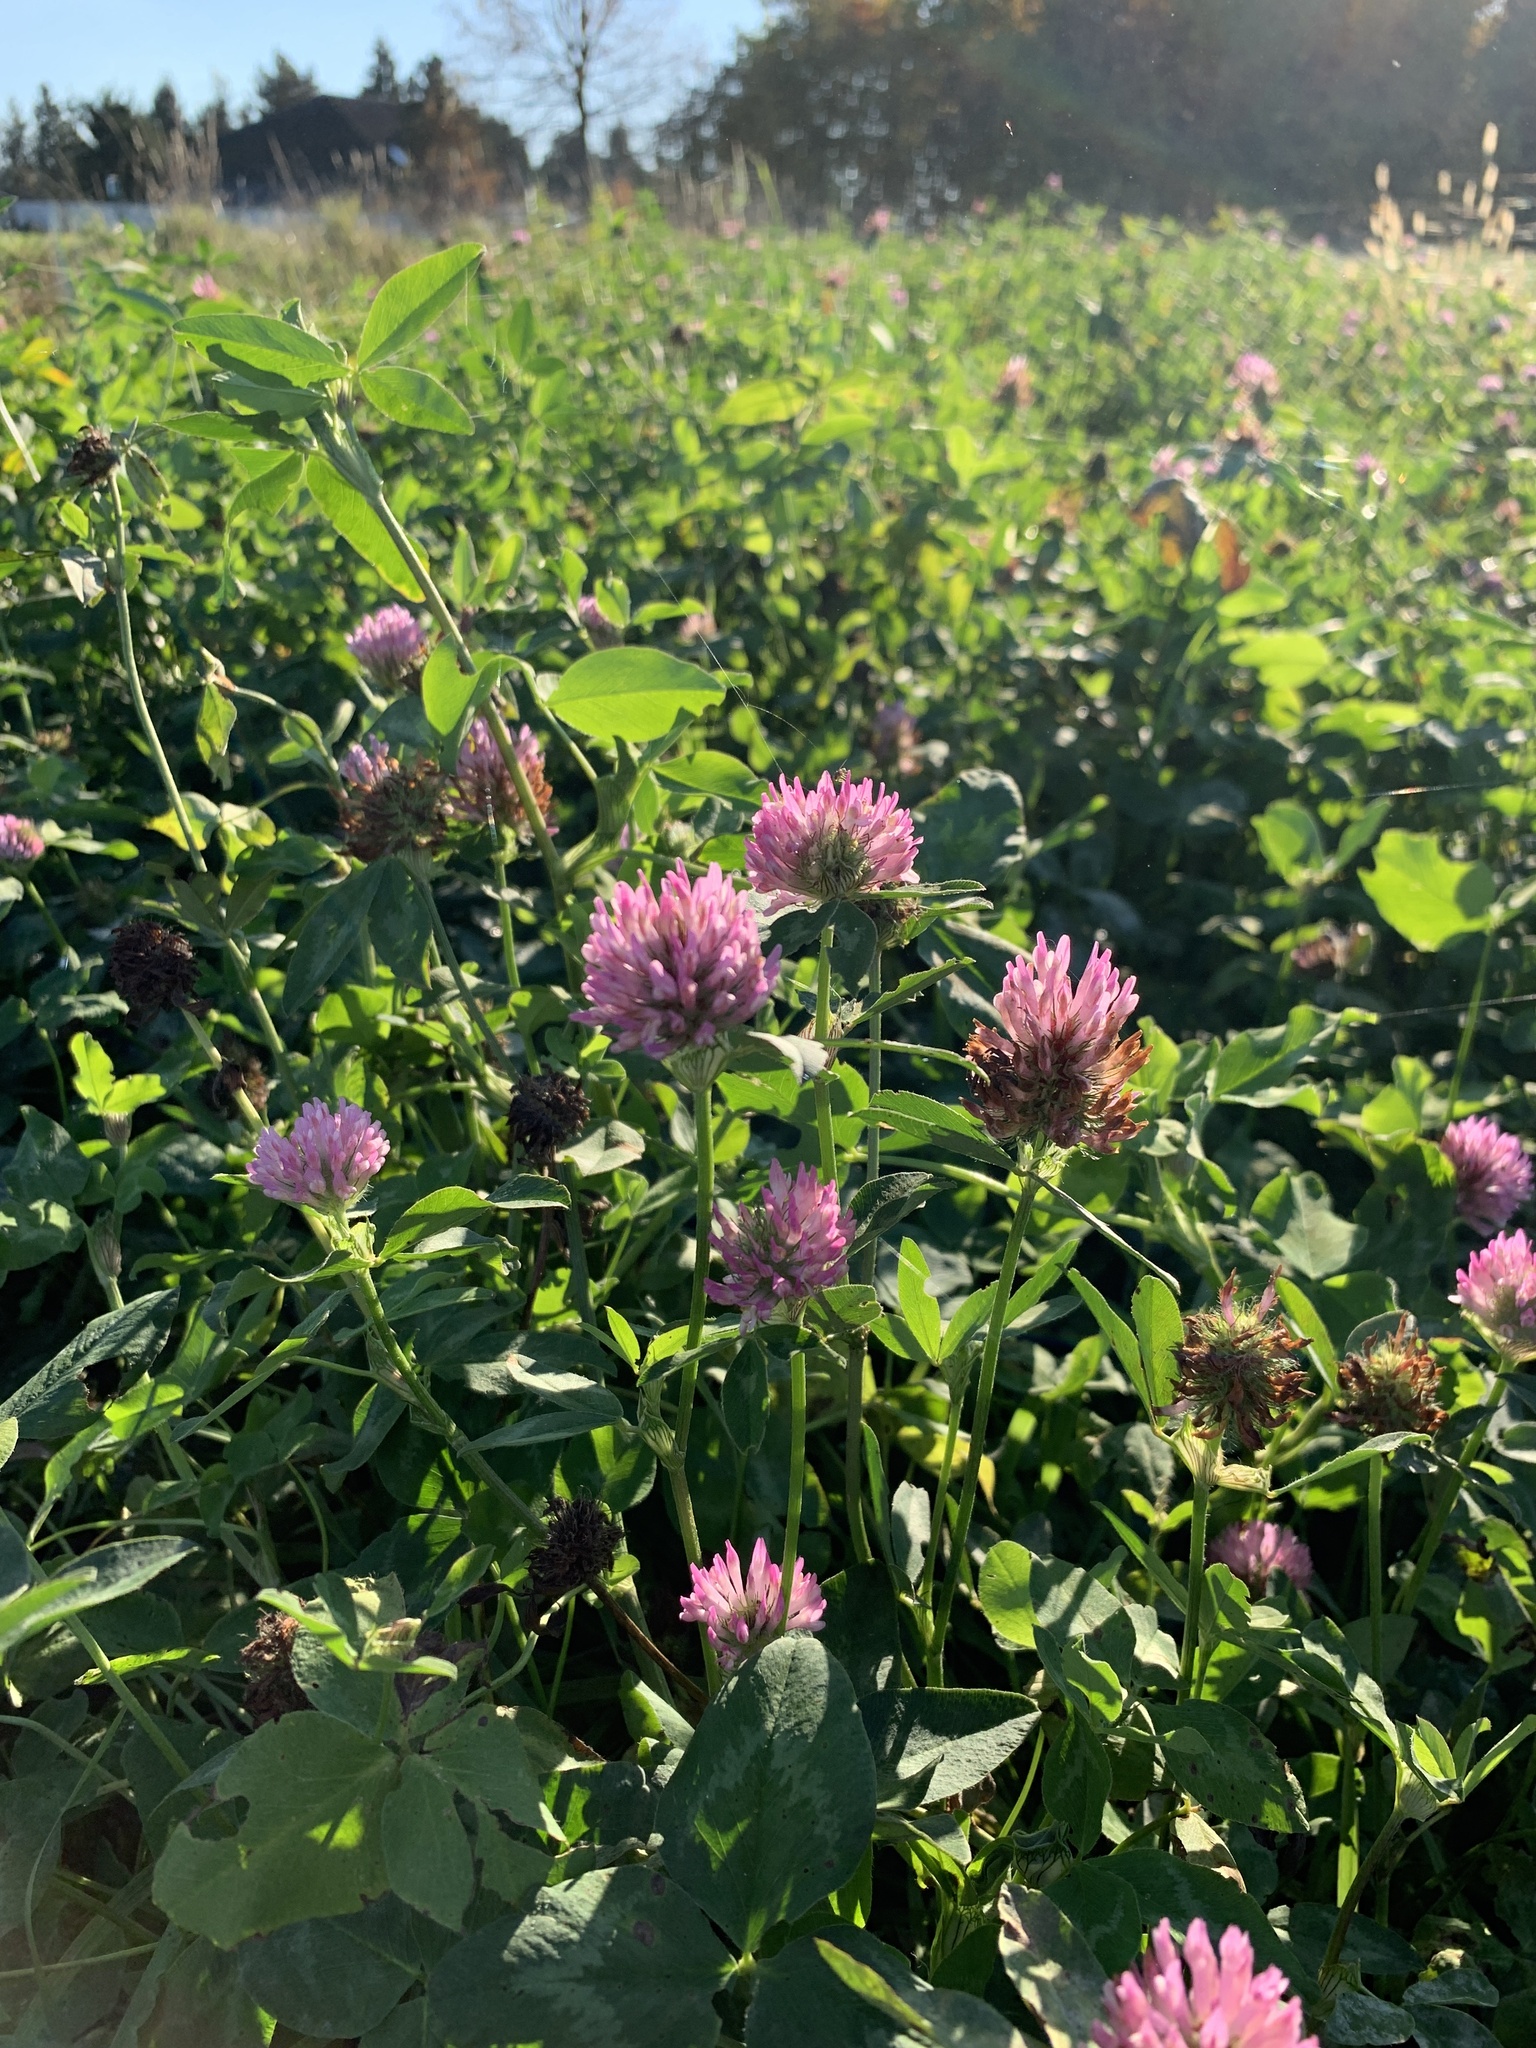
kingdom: Plantae
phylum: Tracheophyta
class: Magnoliopsida
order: Fabales
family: Fabaceae
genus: Trifolium
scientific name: Trifolium pratense
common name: Red clover
